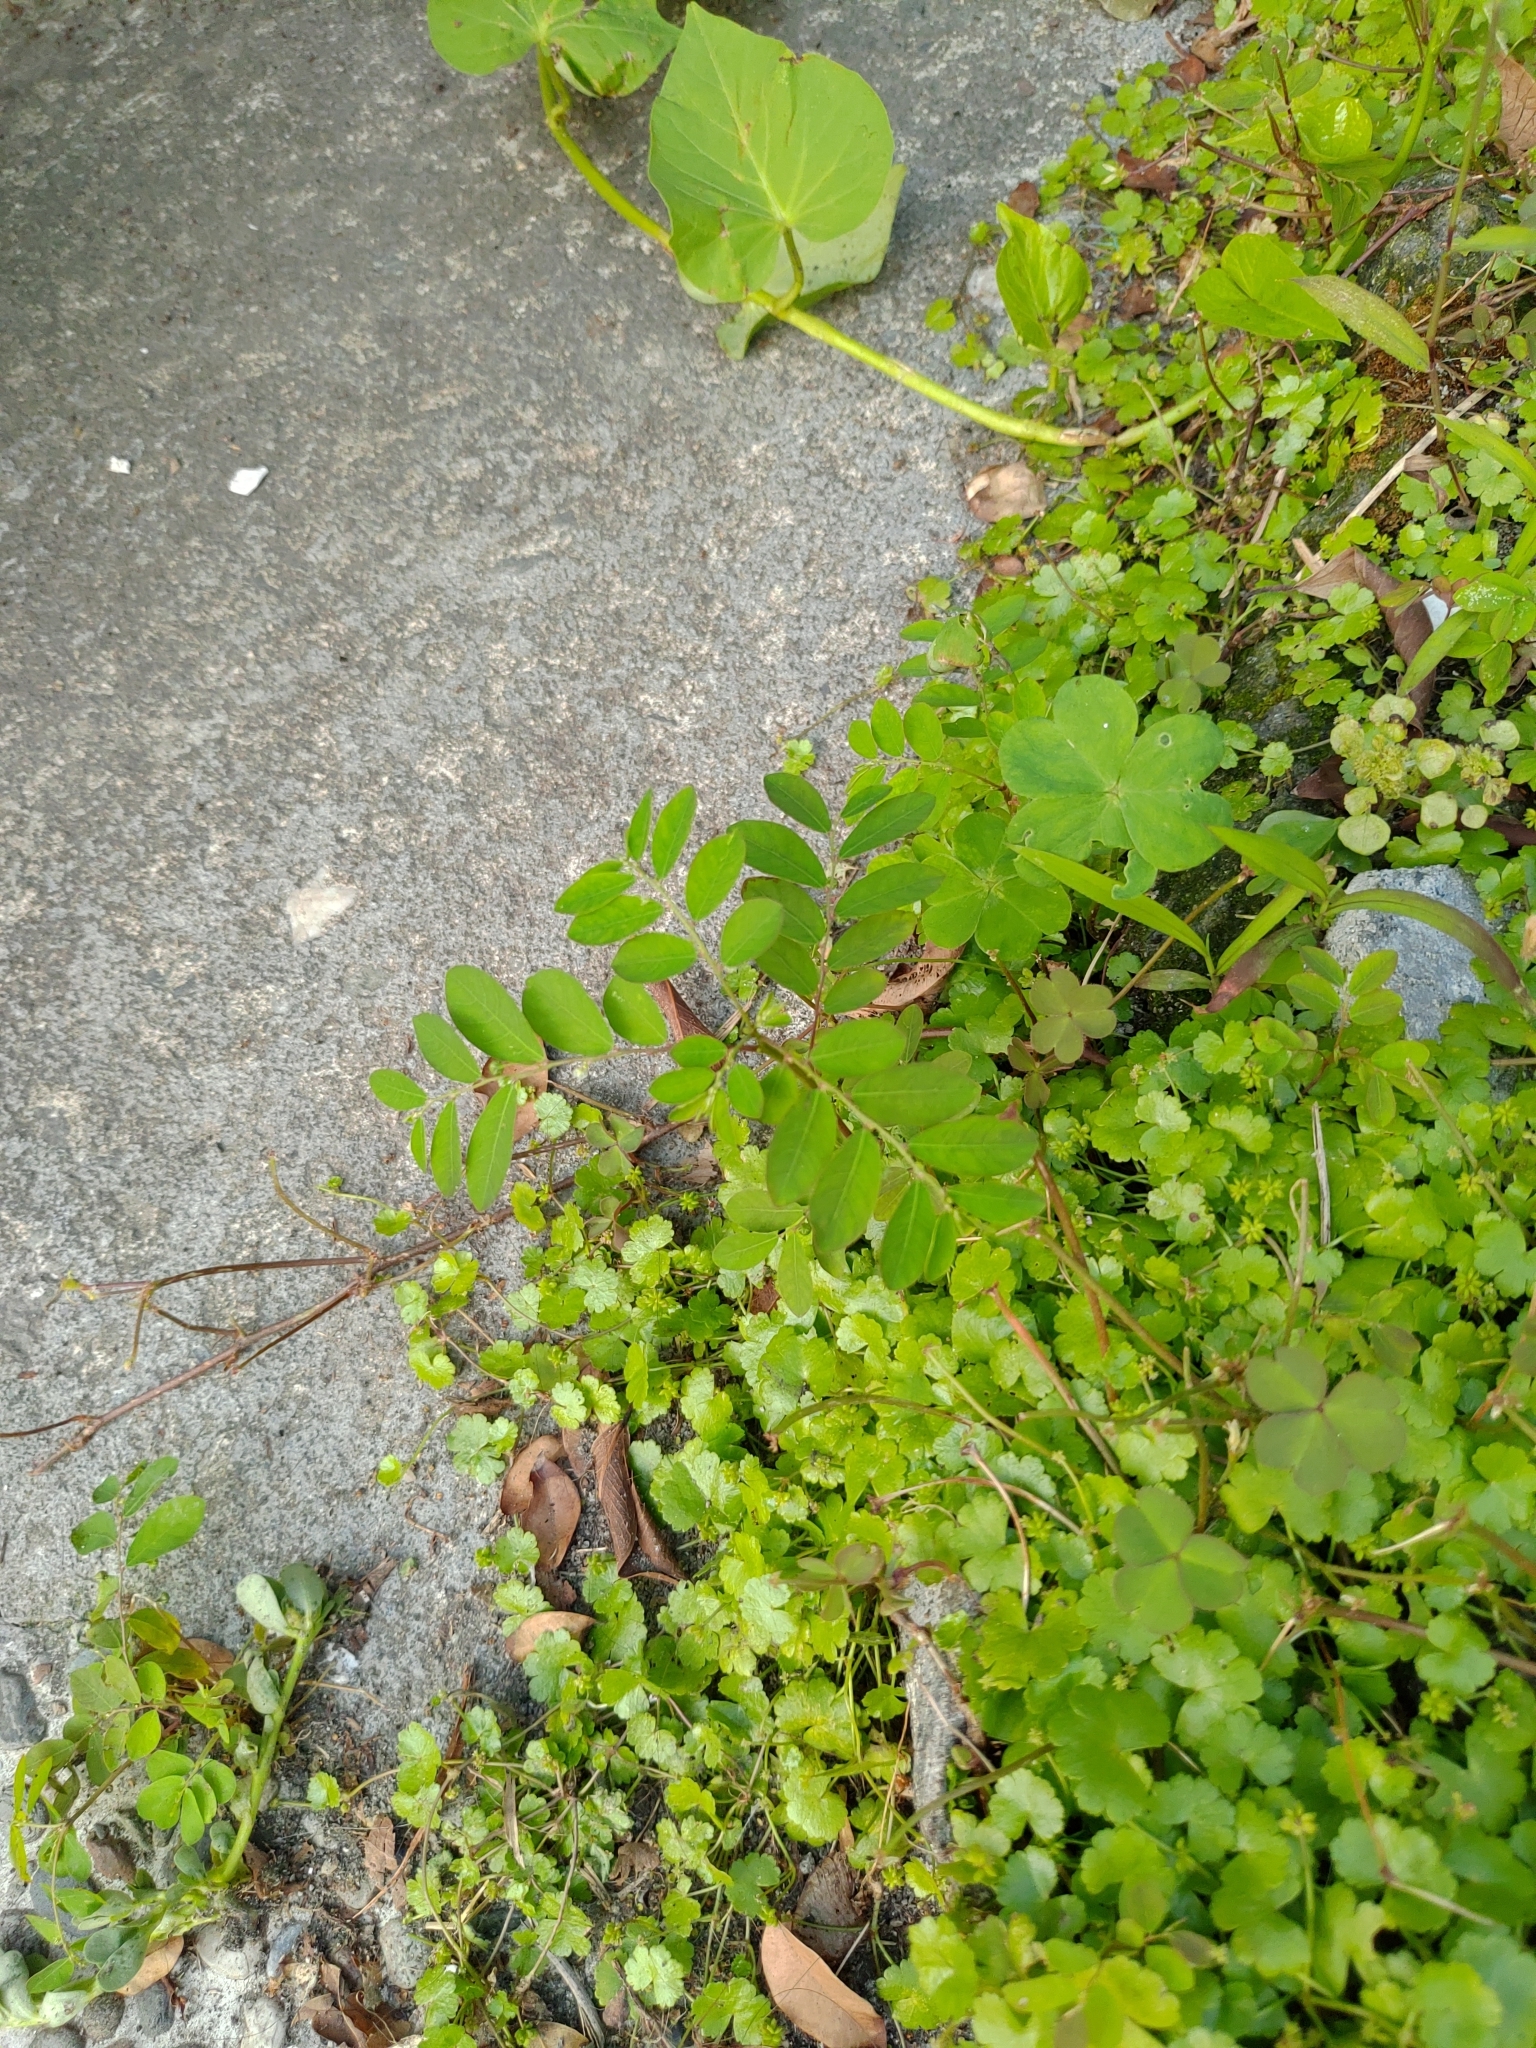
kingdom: Plantae
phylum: Tracheophyta
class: Magnoliopsida
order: Malpighiales
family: Phyllanthaceae
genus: Phyllanthus
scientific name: Phyllanthus tenellus
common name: Mascarene island leaf-flower
